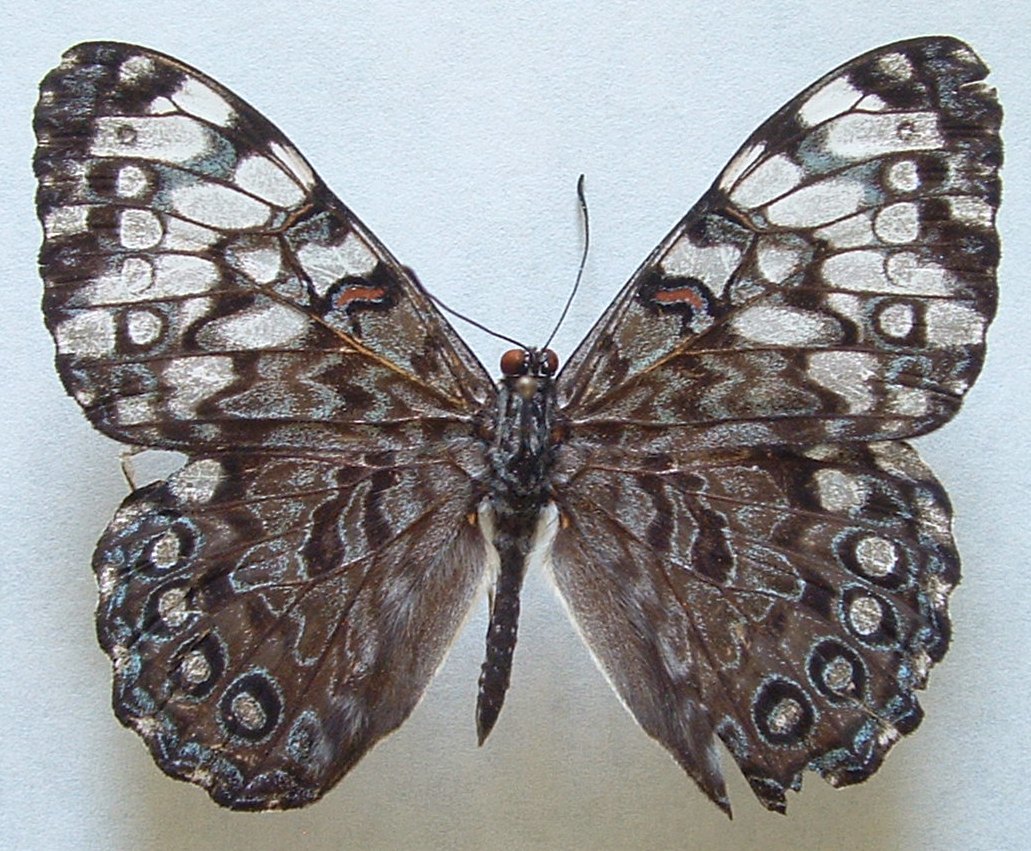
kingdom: Animalia
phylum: Arthropoda
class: Insecta
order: Lepidoptera
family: Nymphalidae
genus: Hamadryas
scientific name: Hamadryas guatemalena
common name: Guatemalan cracker
